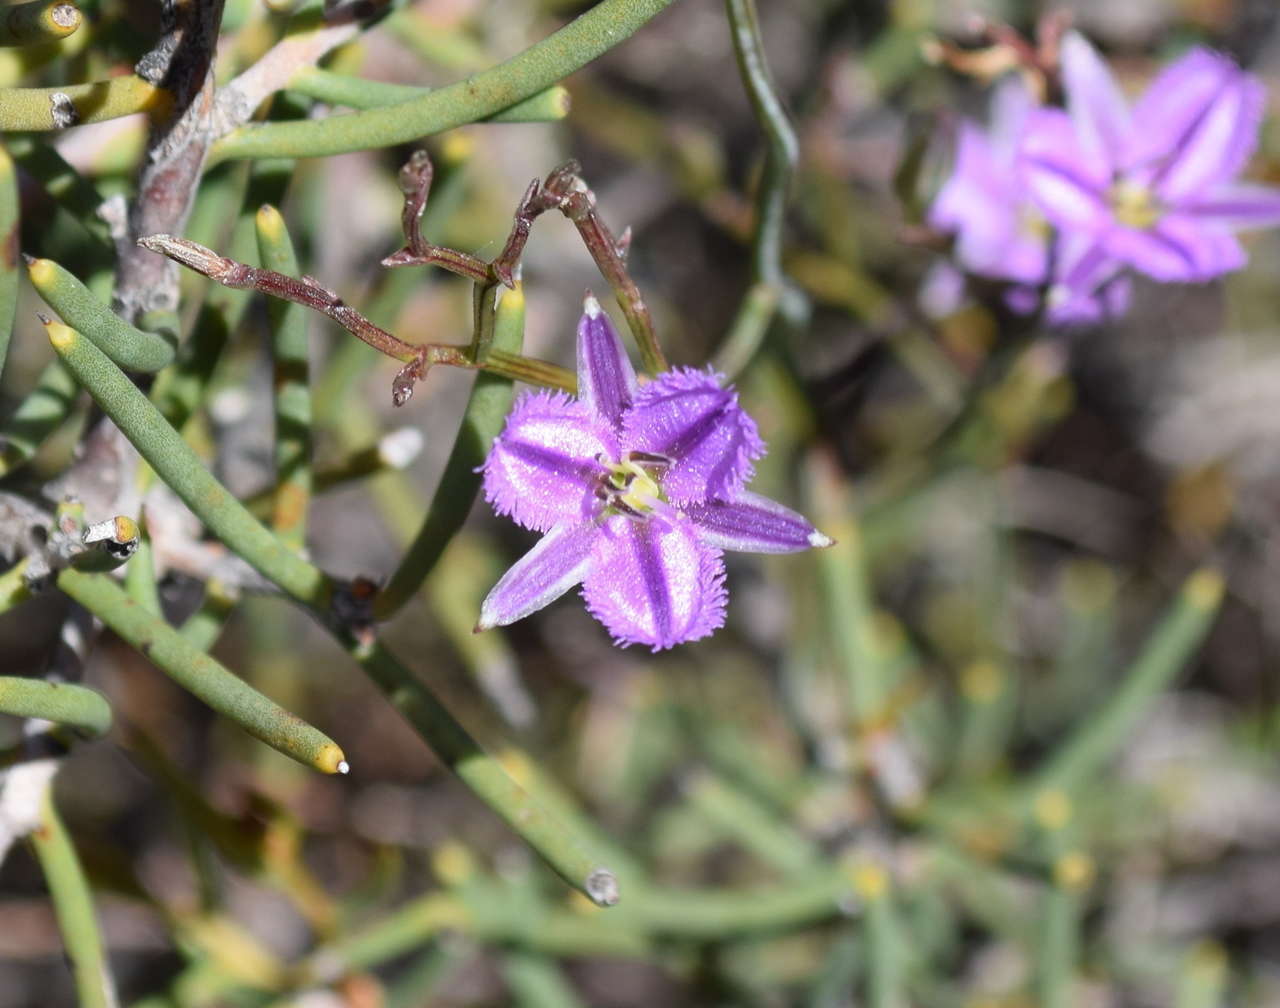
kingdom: Plantae
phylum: Tracheophyta
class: Liliopsida
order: Asparagales
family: Asparagaceae
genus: Thysanotus
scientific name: Thysanotus patersonii
